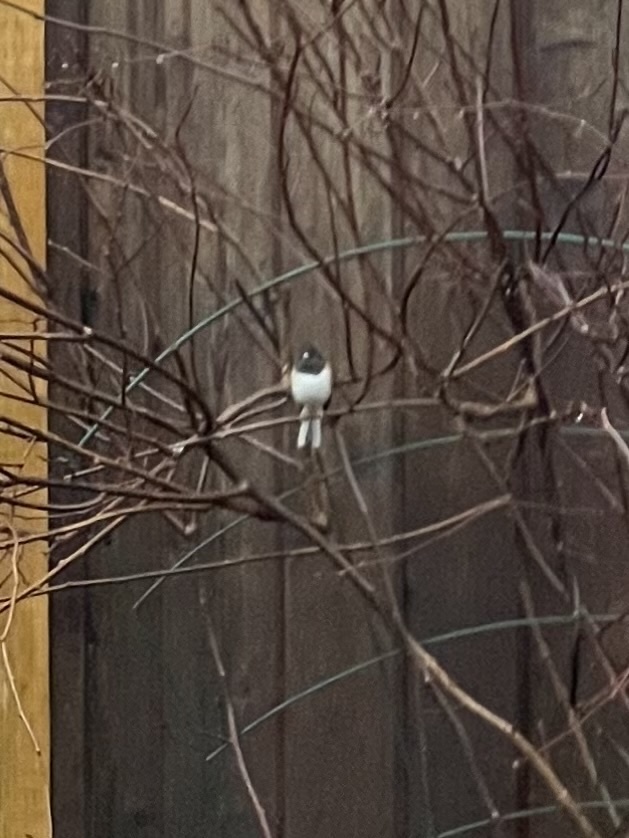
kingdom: Animalia
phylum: Chordata
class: Aves
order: Passeriformes
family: Passerellidae
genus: Junco
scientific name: Junco hyemalis
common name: Dark-eyed junco
